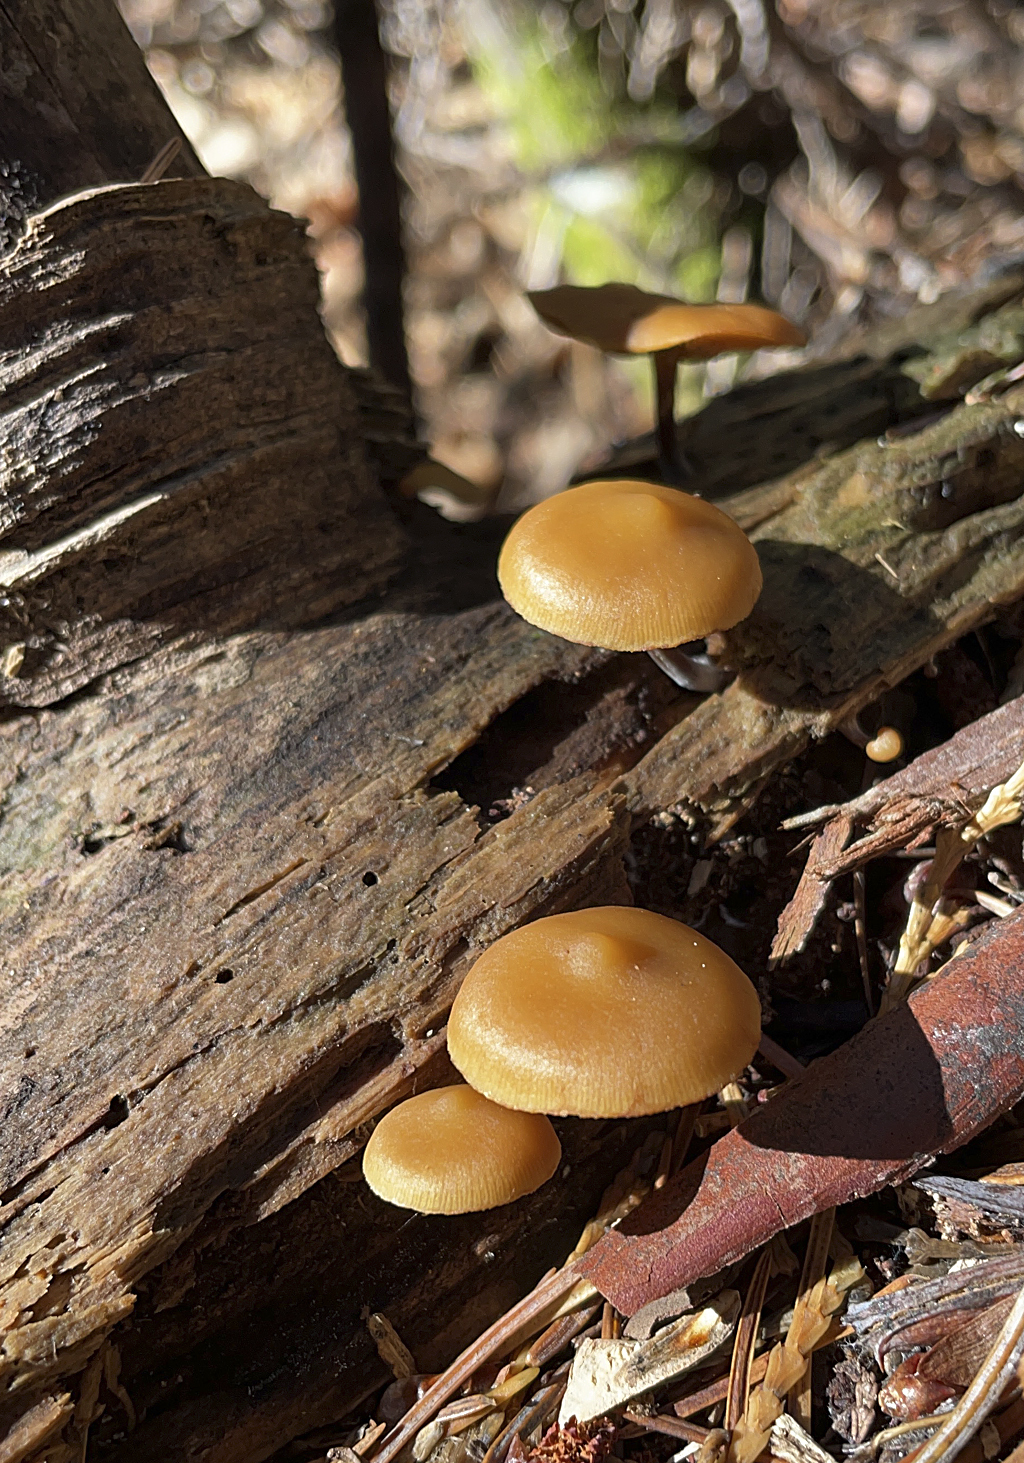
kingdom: Fungi
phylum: Basidiomycota
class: Agaricomycetes
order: Agaricales
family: Strophariaceae
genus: Pholiota
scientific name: Pholiota lignicola
